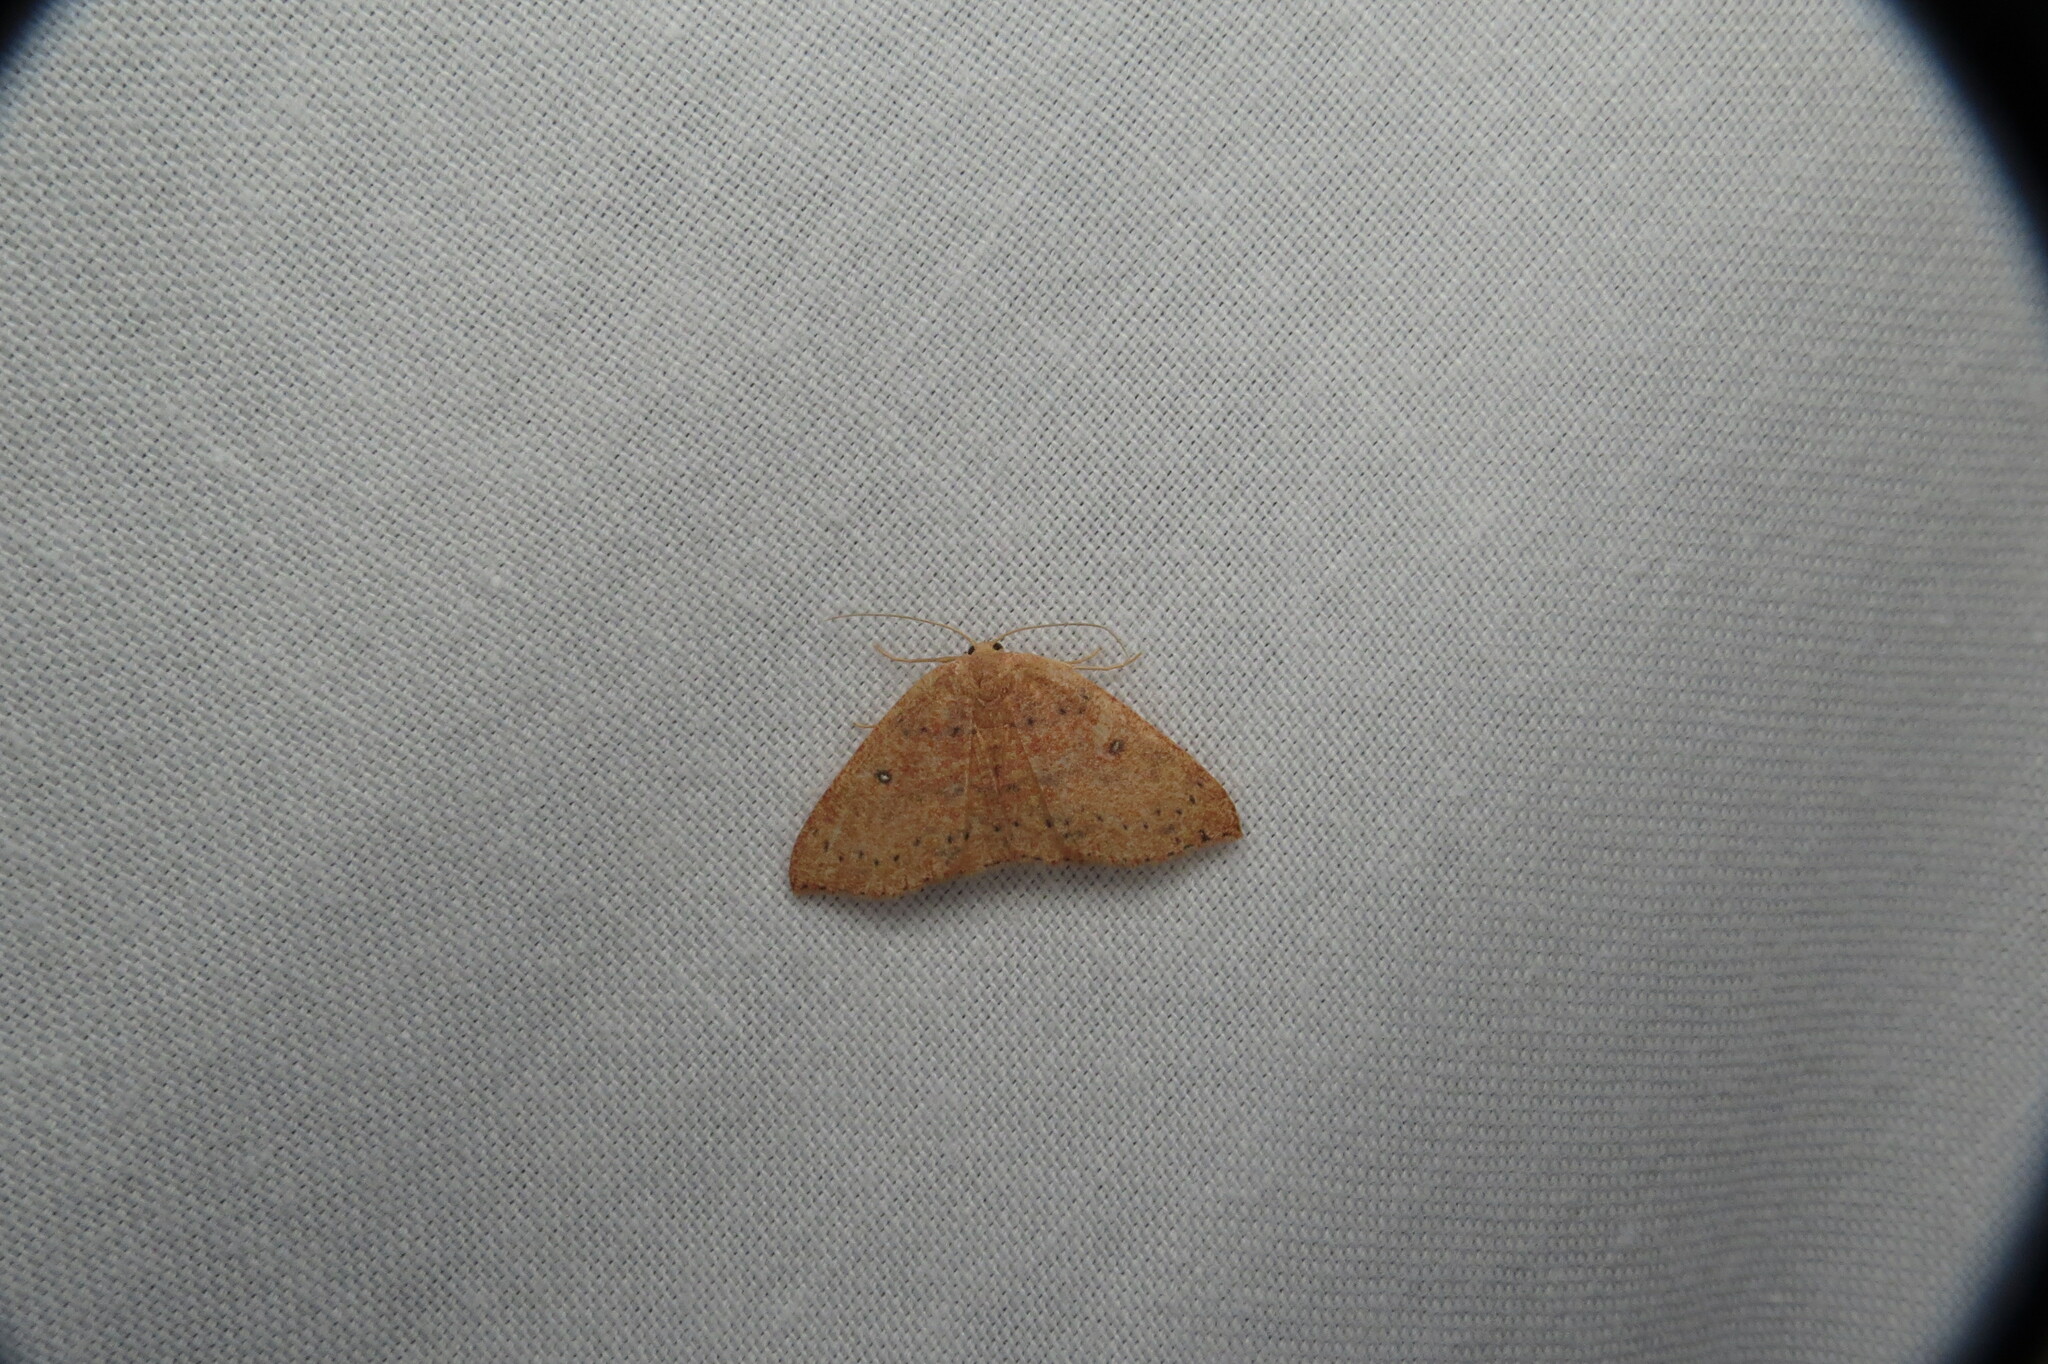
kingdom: Animalia
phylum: Arthropoda
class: Insecta
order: Lepidoptera
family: Geometridae
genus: Cyclophora
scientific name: Cyclophora packardi
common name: Packard's wave
